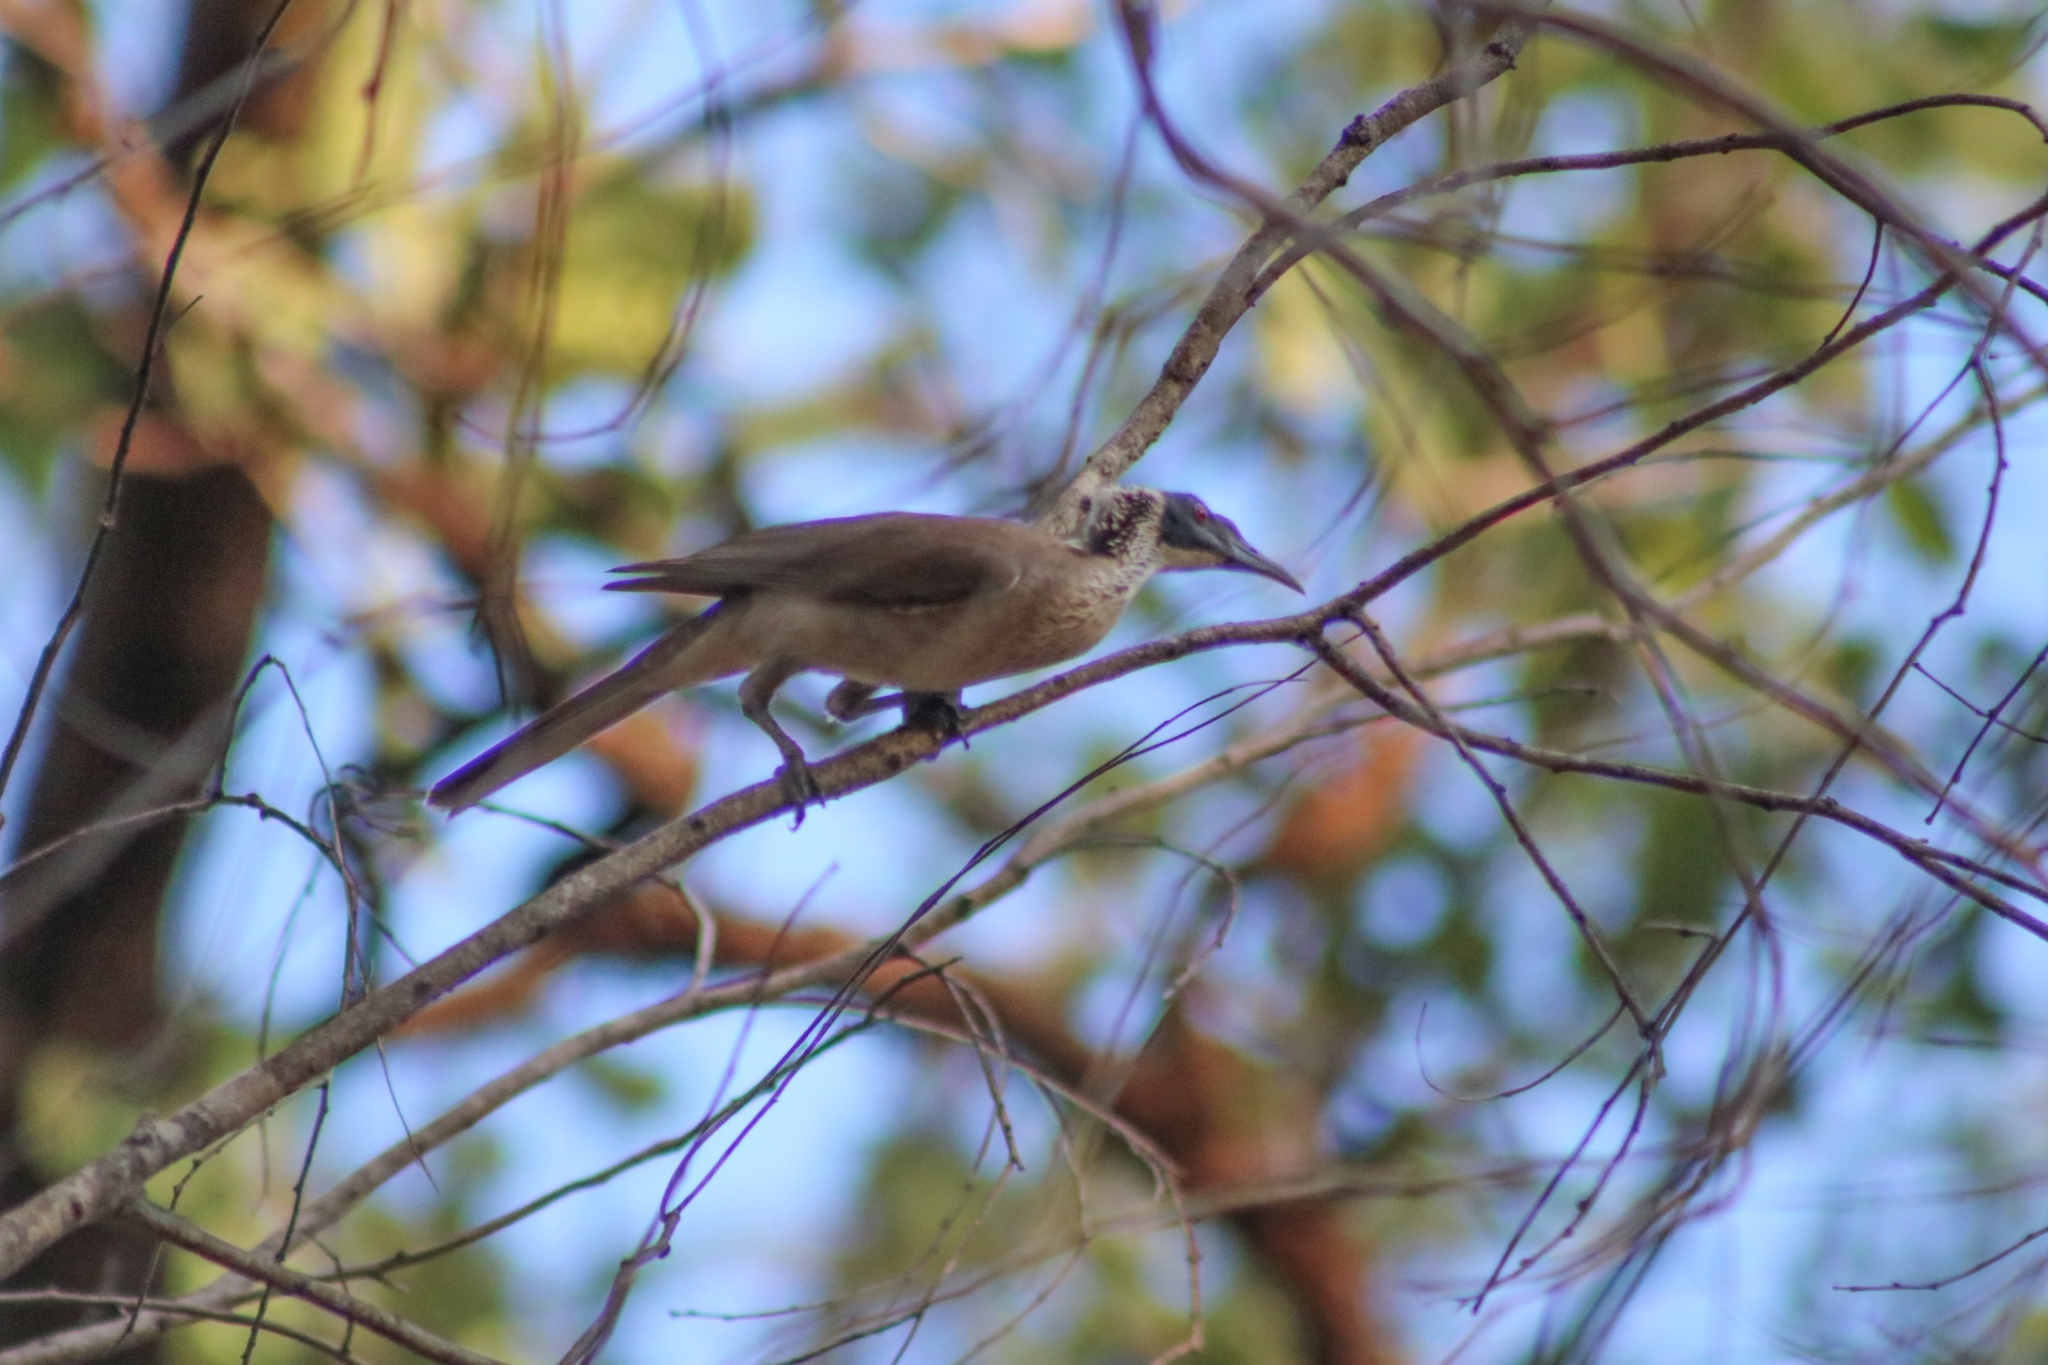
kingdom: Animalia
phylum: Chordata
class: Aves
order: Passeriformes
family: Meliphagidae
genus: Philemon
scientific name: Philemon argenticeps
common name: Silver-crowned friarbird
